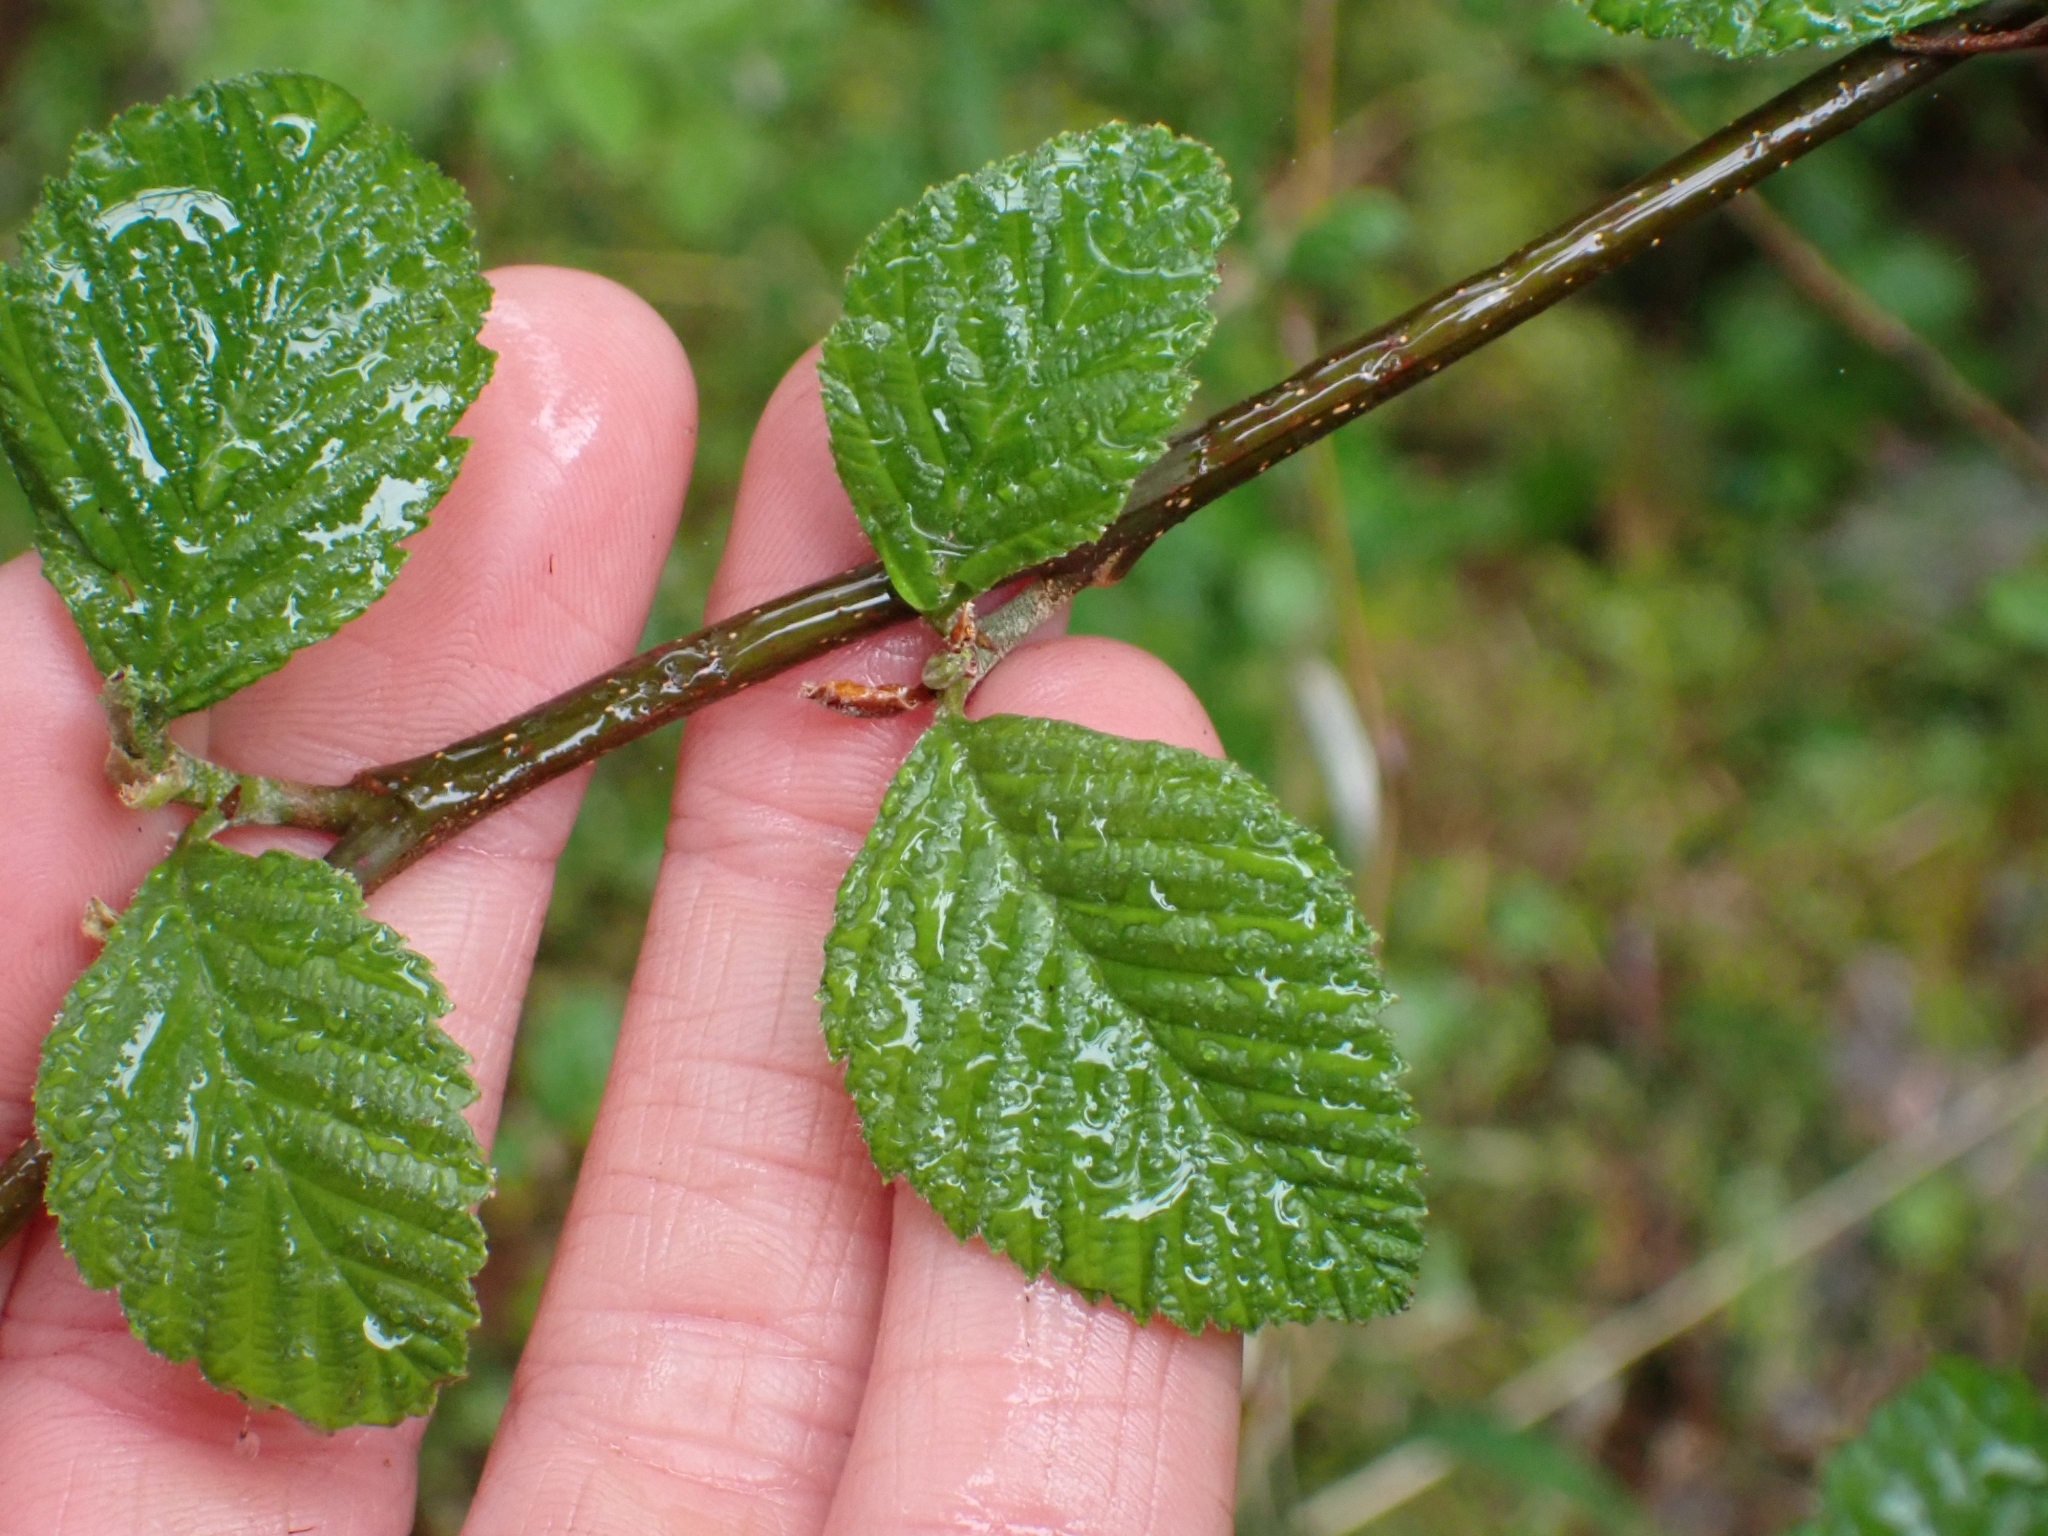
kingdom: Plantae
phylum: Tracheophyta
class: Magnoliopsida
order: Fagales
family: Betulaceae
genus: Alnus
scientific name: Alnus rubra
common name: Red alder
